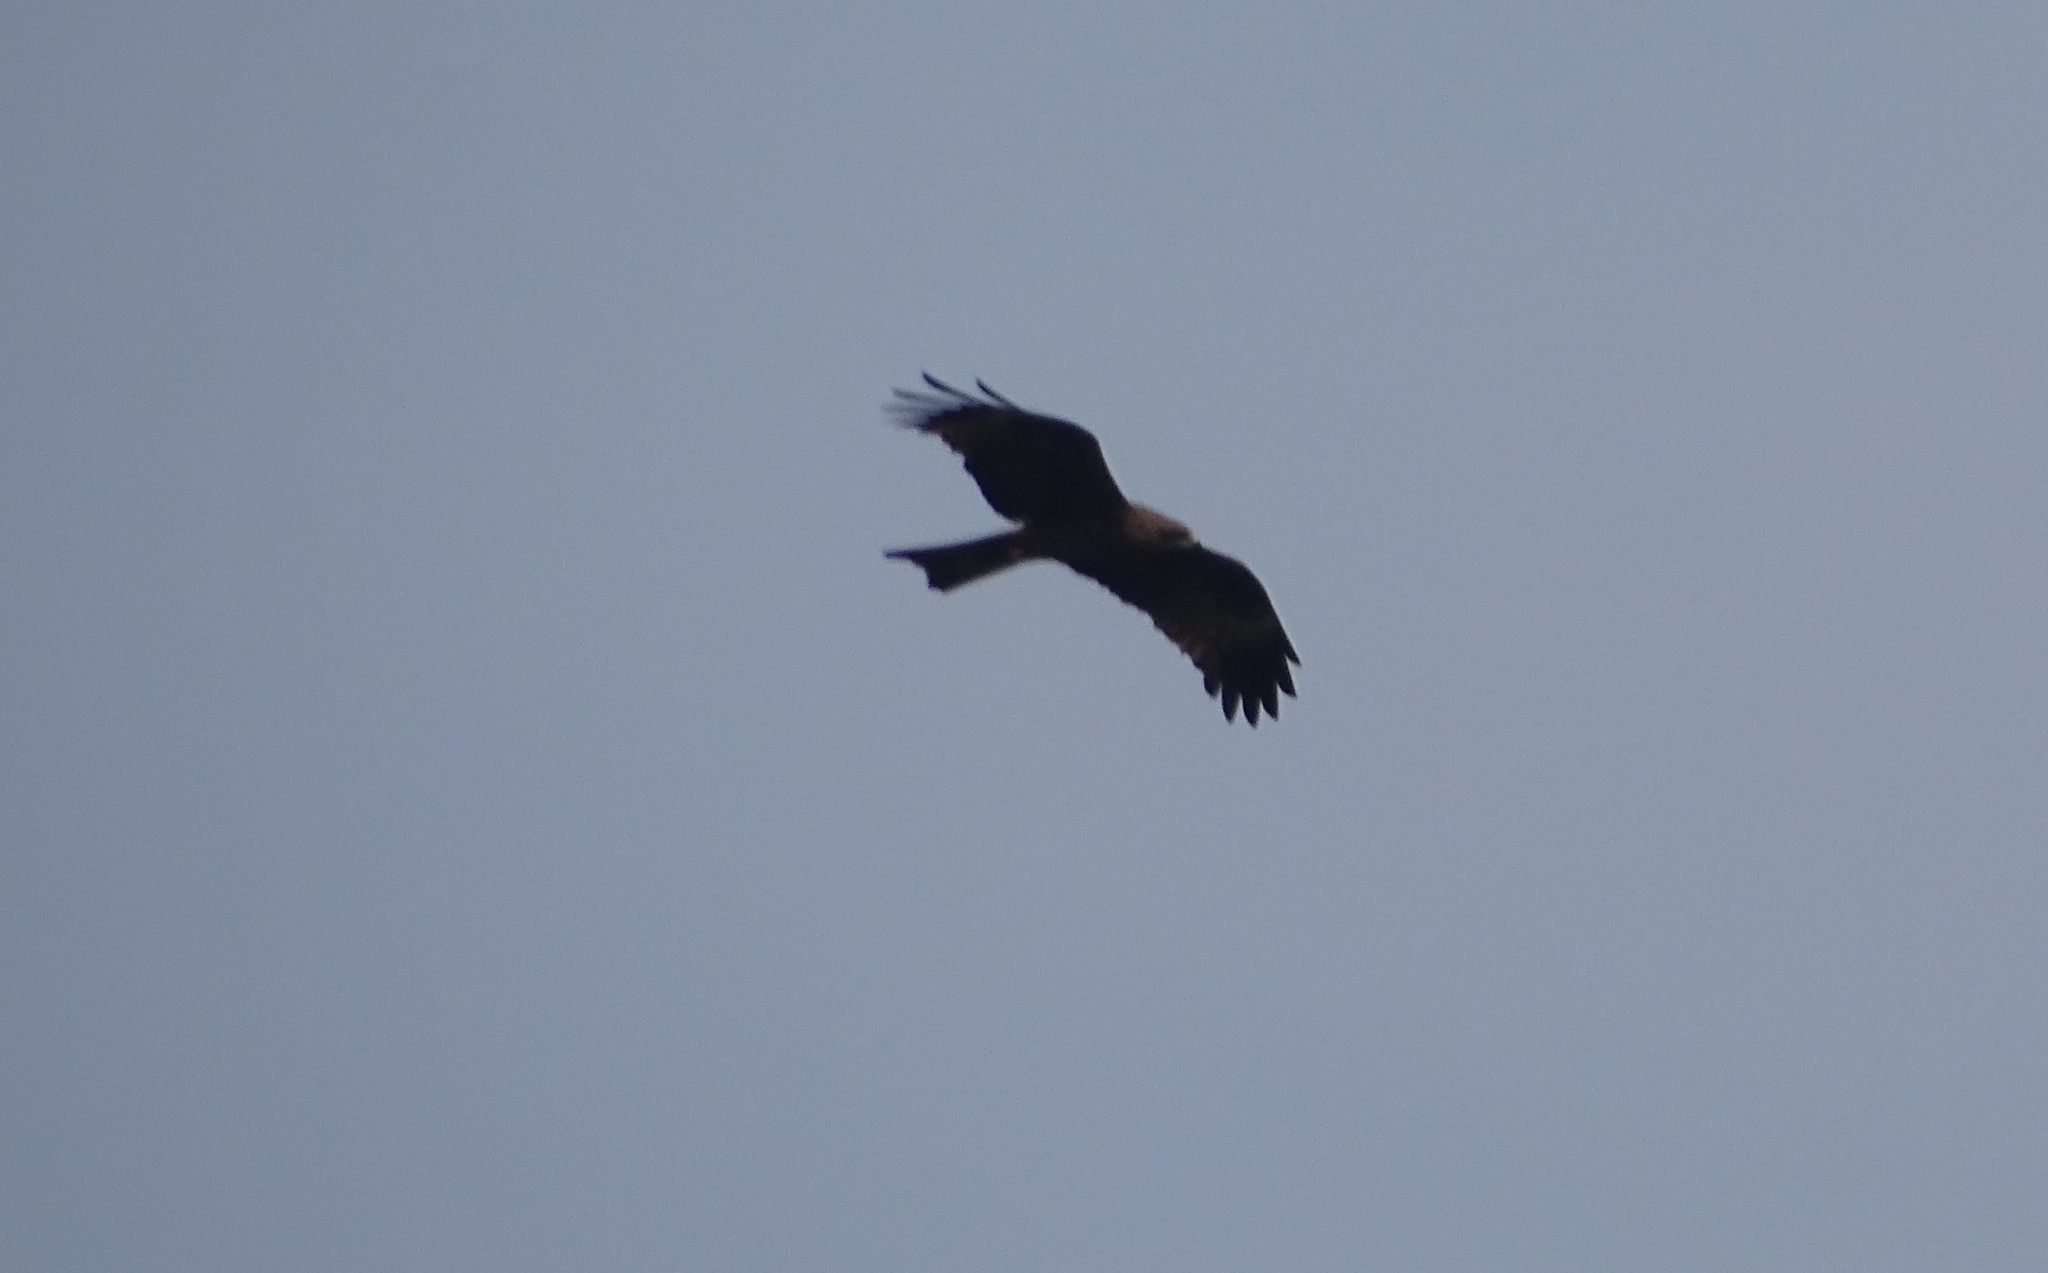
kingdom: Animalia
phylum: Chordata
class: Aves
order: Accipitriformes
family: Accipitridae
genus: Milvus
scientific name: Milvus migrans
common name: Black kite
